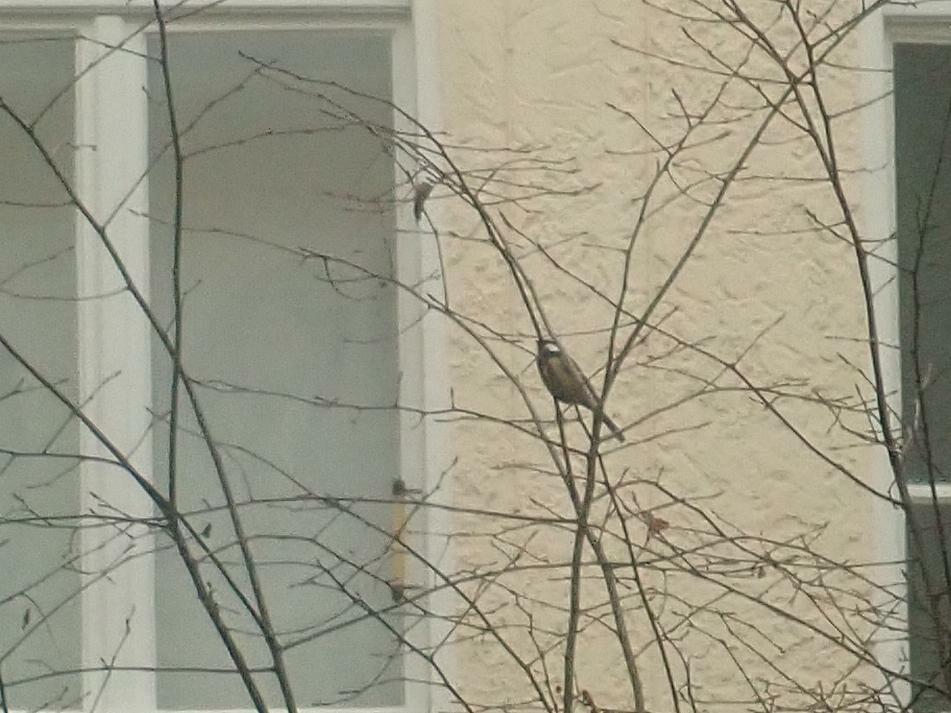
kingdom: Animalia
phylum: Chordata
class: Aves
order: Passeriformes
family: Paridae
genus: Parus
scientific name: Parus major
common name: Great tit
